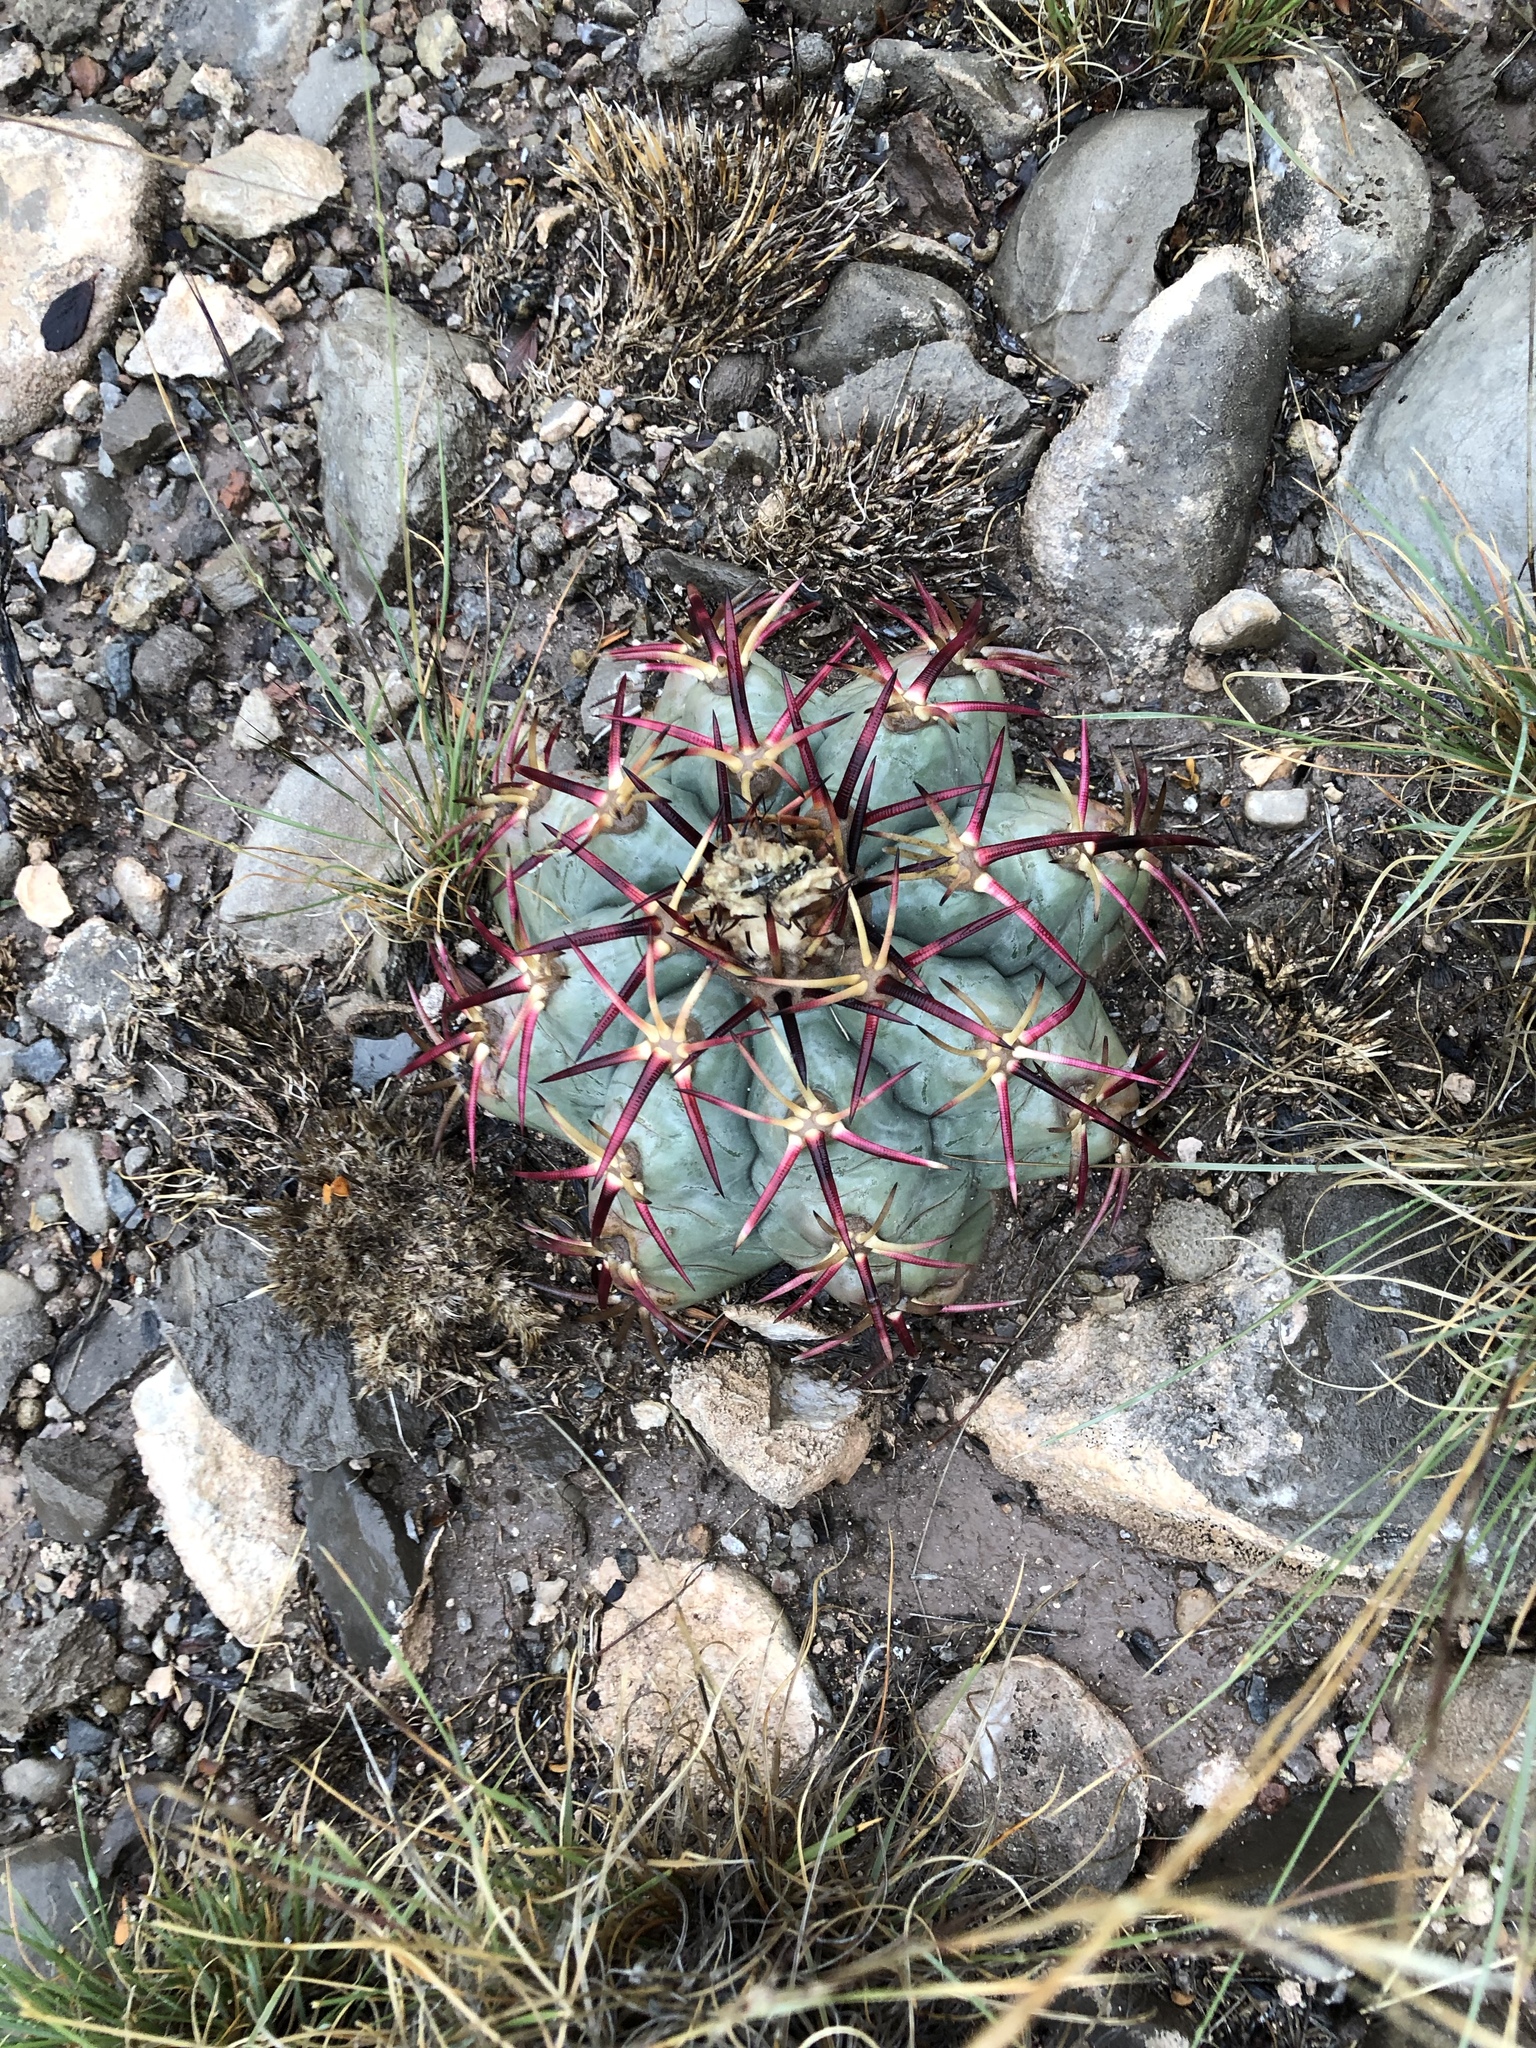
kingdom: Plantae
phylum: Tracheophyta
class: Magnoliopsida
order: Caryophyllales
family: Cactaceae
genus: Echinocactus
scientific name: Echinocactus horizonthalonius
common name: Devilshead
